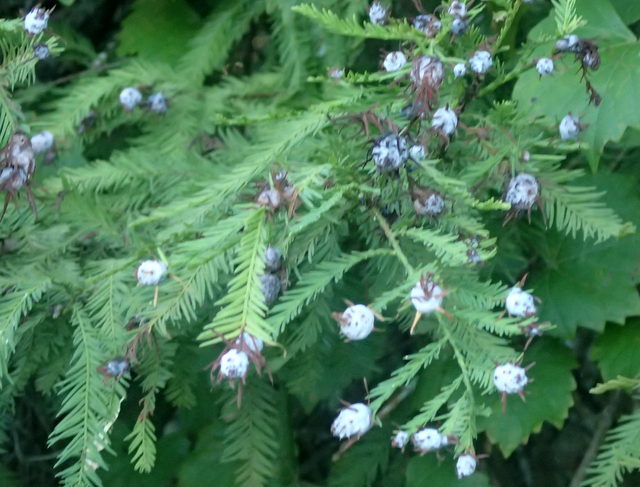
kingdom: Animalia
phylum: Arthropoda
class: Insecta
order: Diptera
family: Cecidomyiidae
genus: Taxodiomyia
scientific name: Taxodiomyia cupressiananassa
